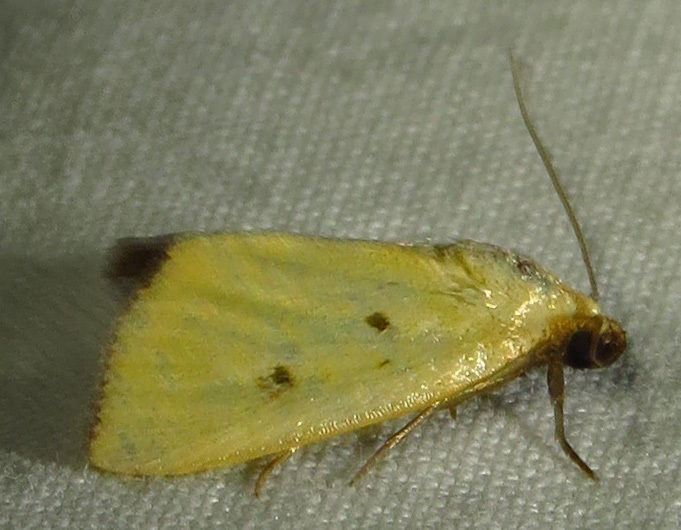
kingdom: Animalia
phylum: Arthropoda
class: Insecta
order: Lepidoptera
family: Noctuidae
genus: Marimatha
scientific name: Marimatha nigrofimbria
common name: Black-bordered lemon moth
